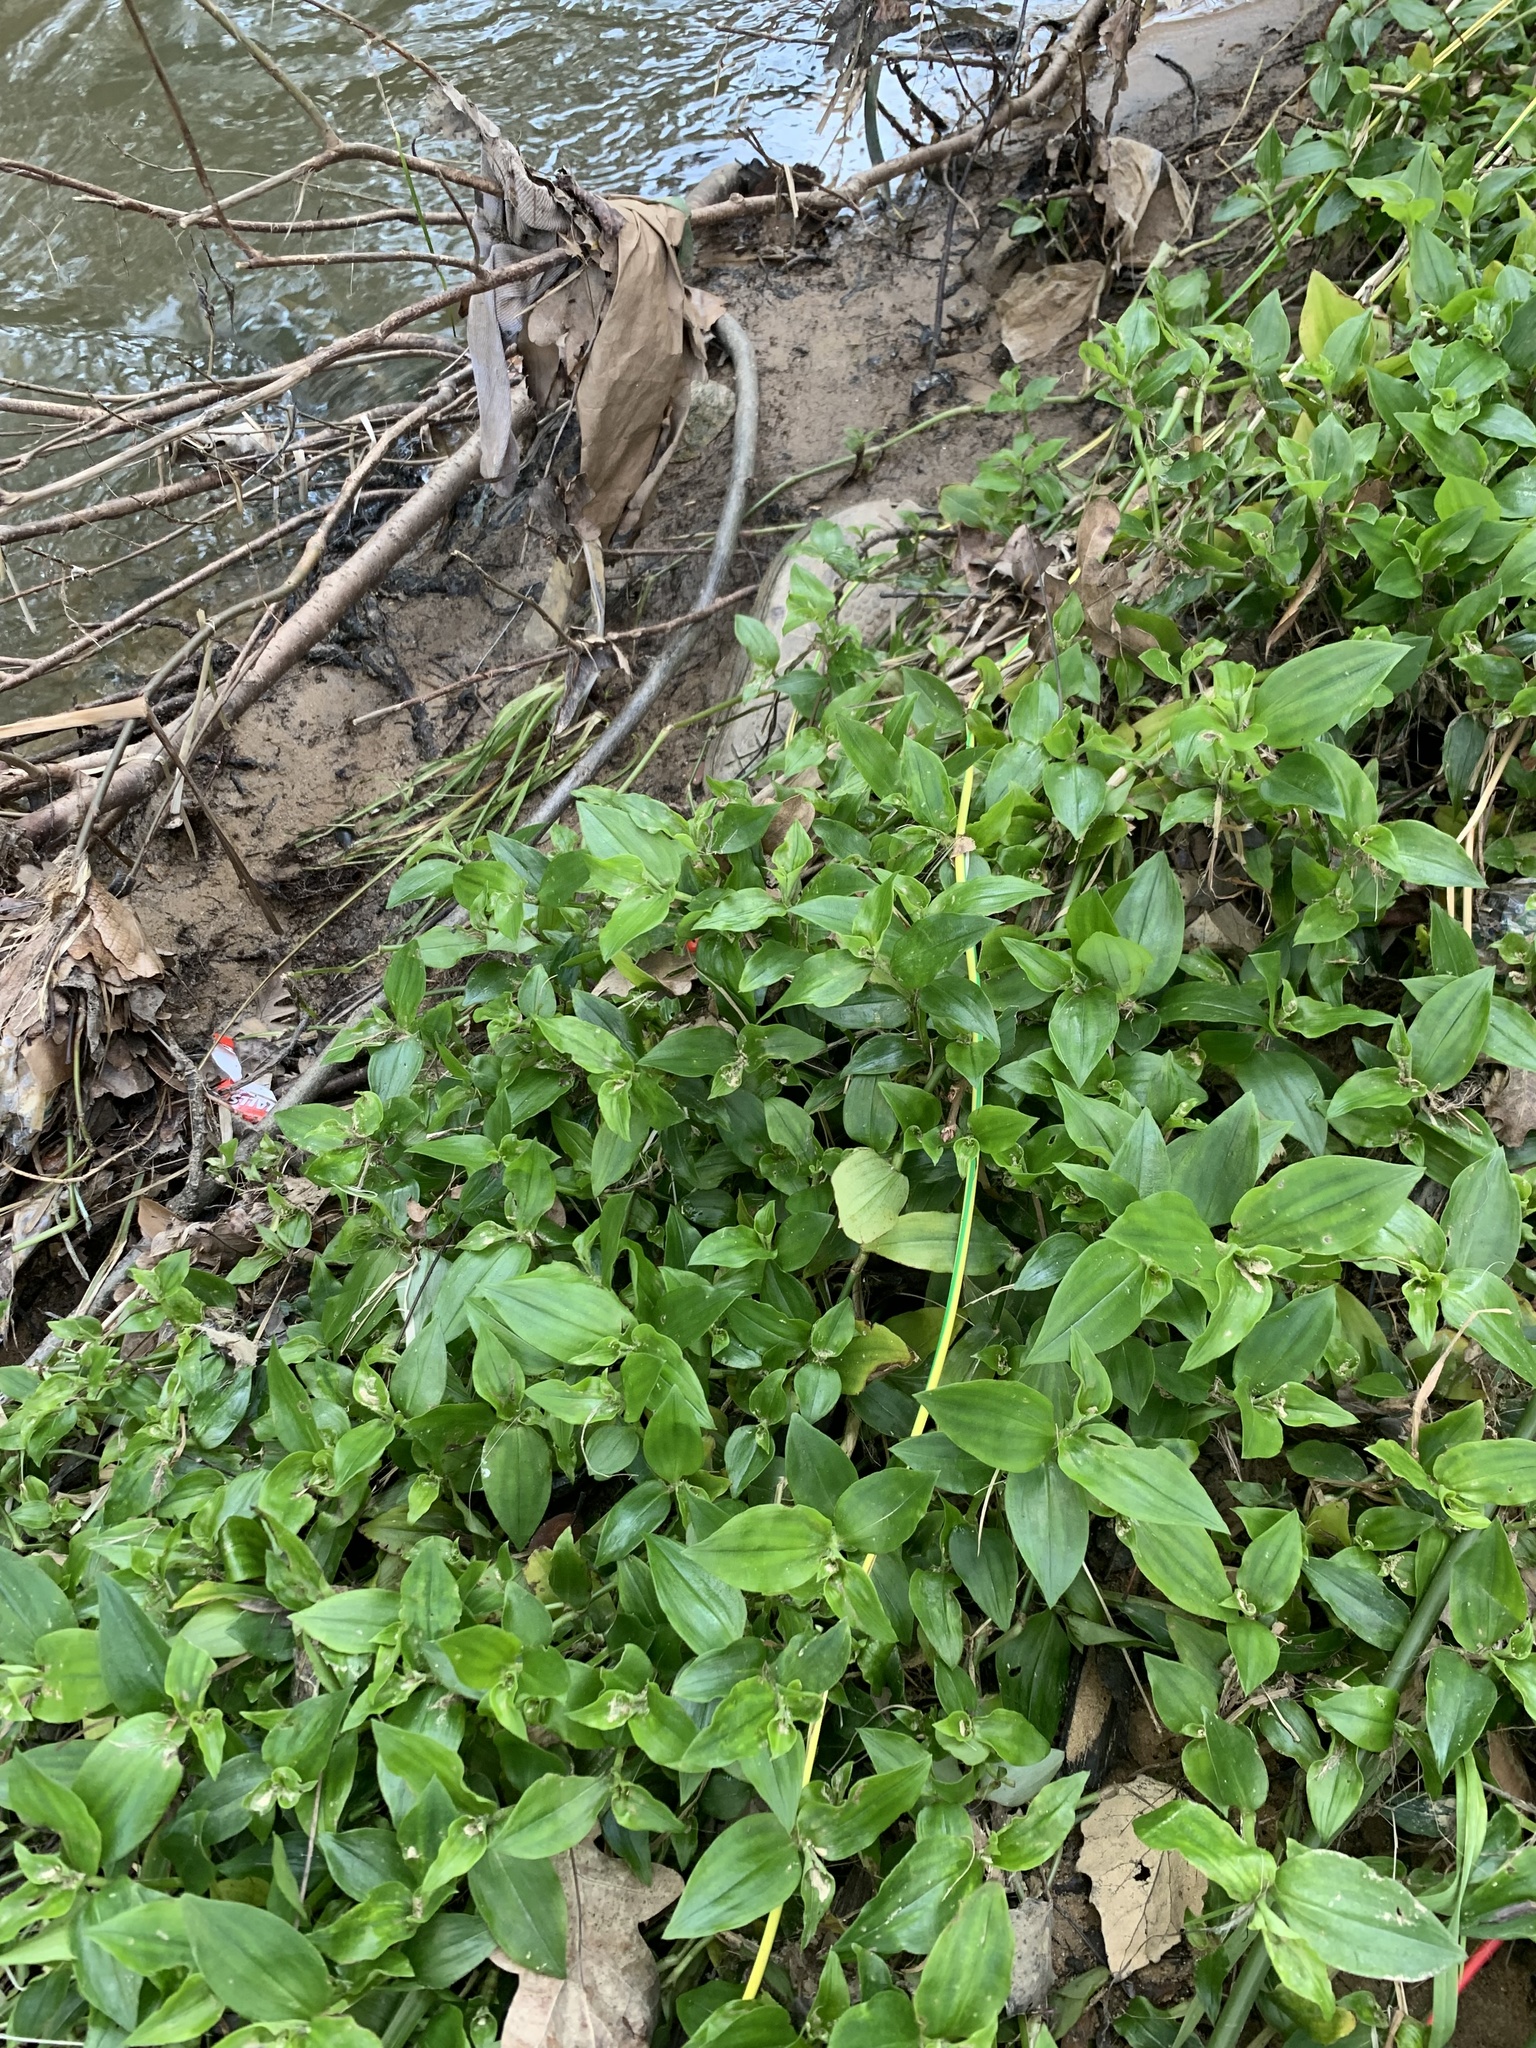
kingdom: Plantae
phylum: Tracheophyta
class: Liliopsida
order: Commelinales
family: Commelinaceae
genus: Tradescantia
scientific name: Tradescantia fluminensis
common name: Wandering-jew
